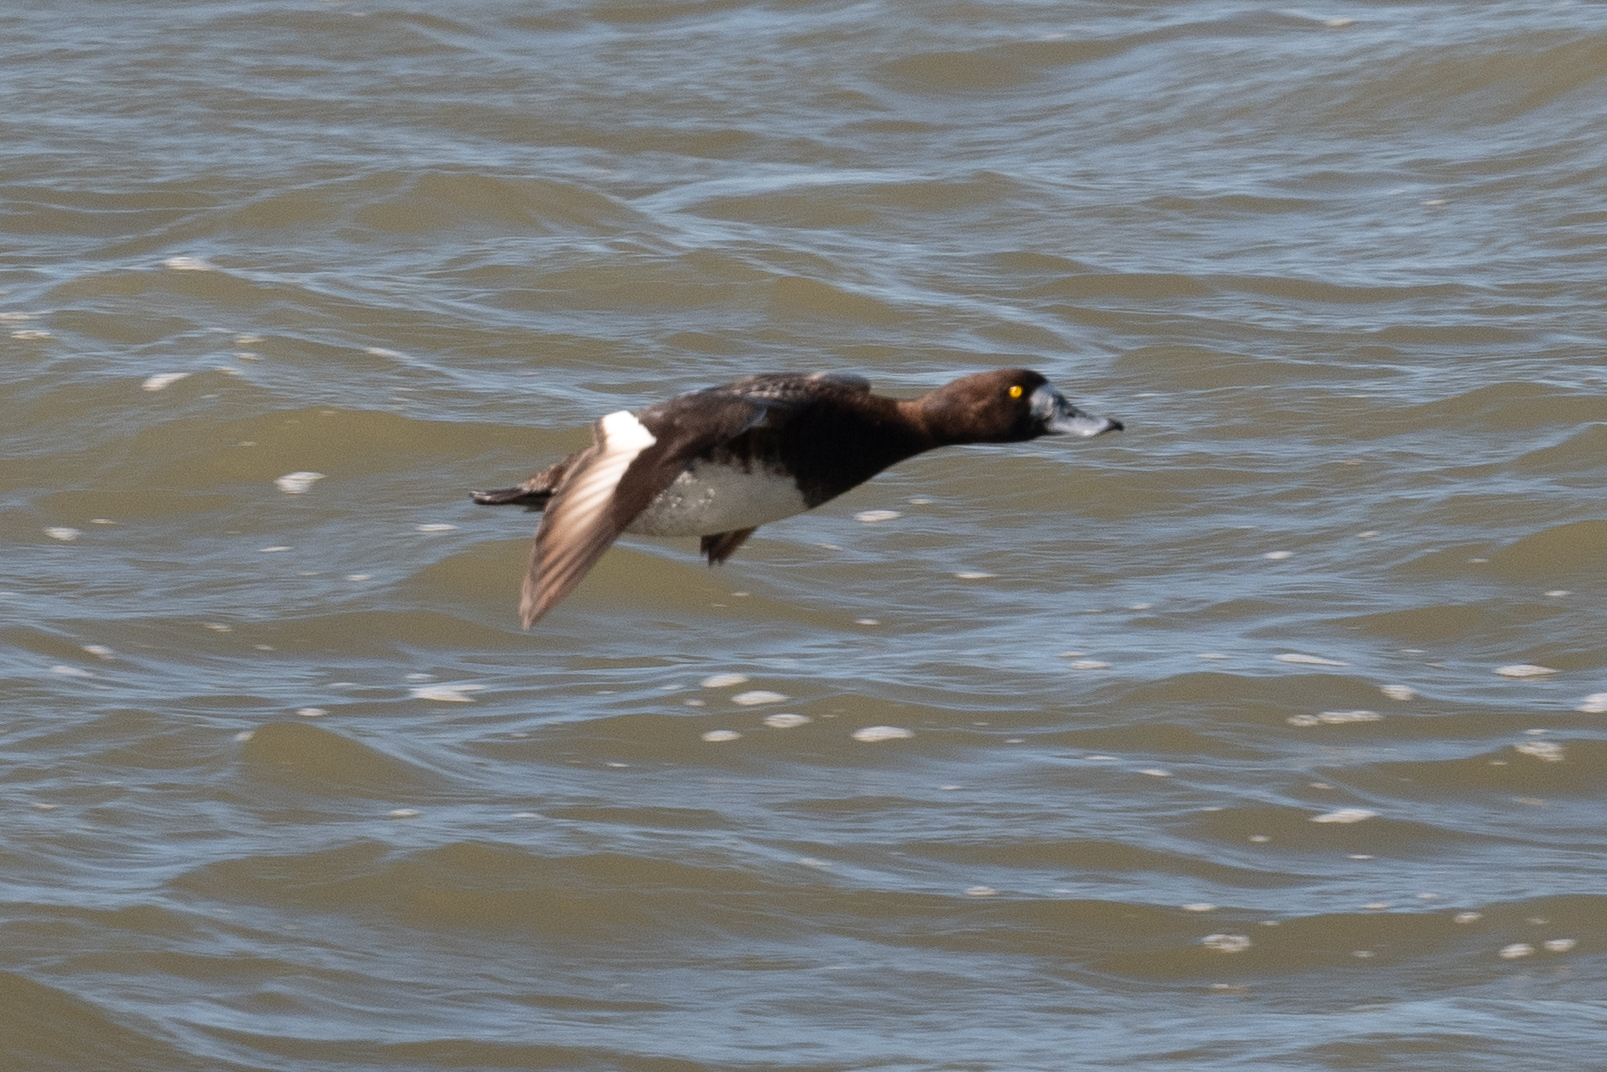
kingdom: Animalia
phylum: Chordata
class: Aves
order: Anseriformes
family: Anatidae
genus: Aythya
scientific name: Aythya marila
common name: Greater scaup
